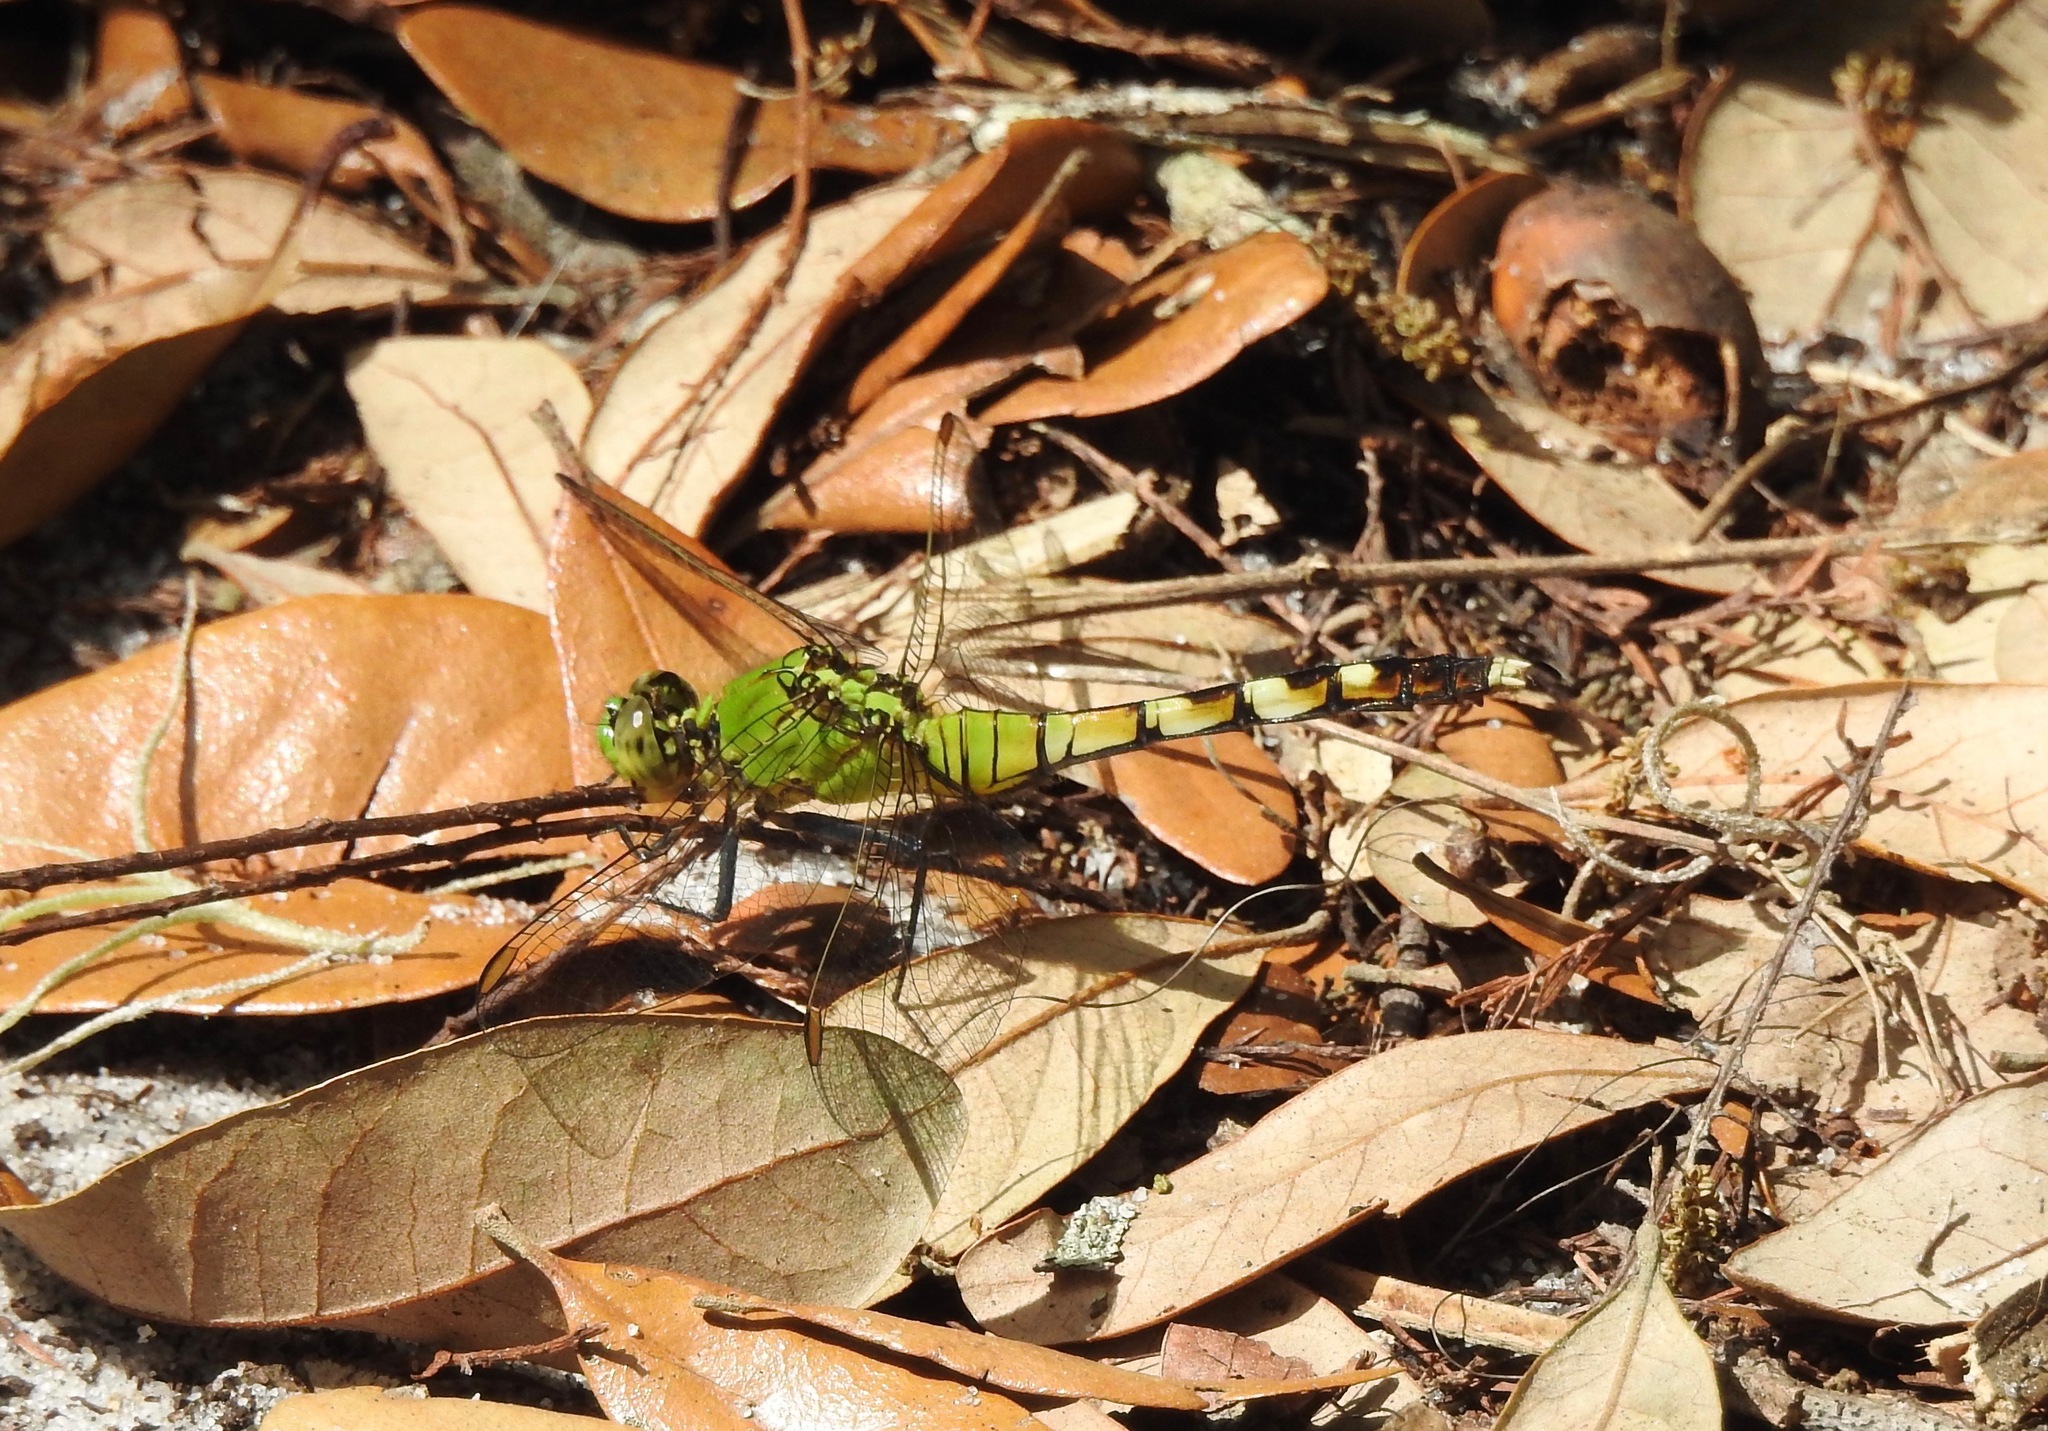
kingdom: Animalia
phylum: Arthropoda
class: Insecta
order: Odonata
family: Libellulidae
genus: Erythemis
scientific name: Erythemis simplicicollis
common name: Eastern pondhawk
